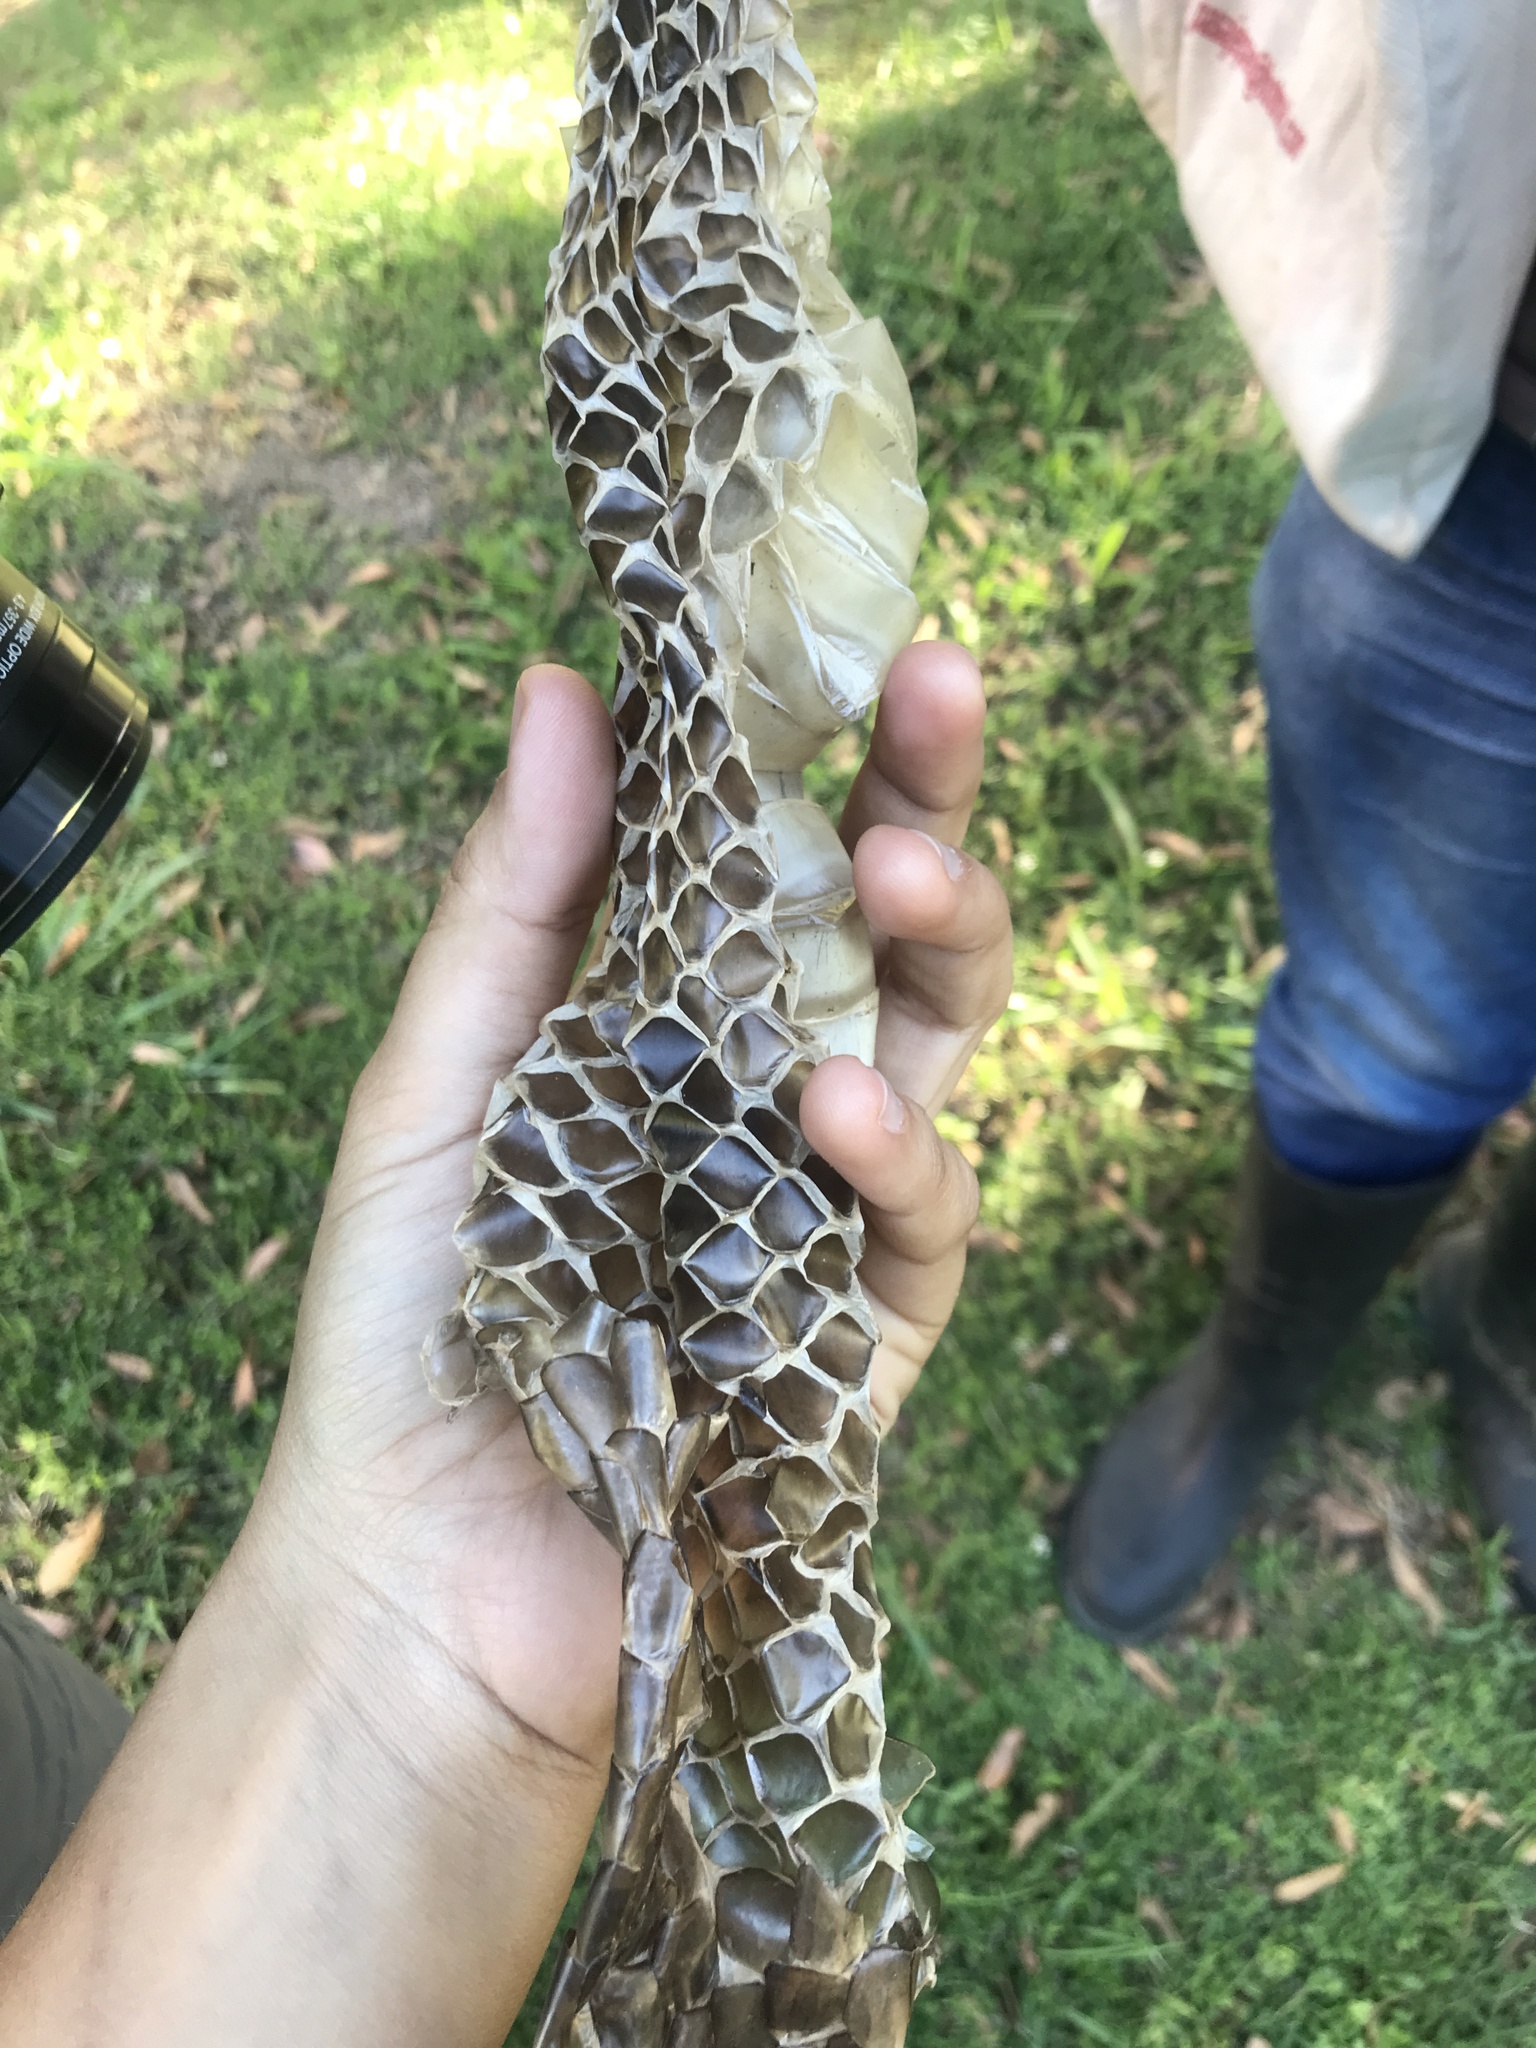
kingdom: Animalia
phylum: Chordata
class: Squamata
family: Colubridae
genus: Hydrodynastes
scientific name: Hydrodynastes gigas
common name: False water cobra
